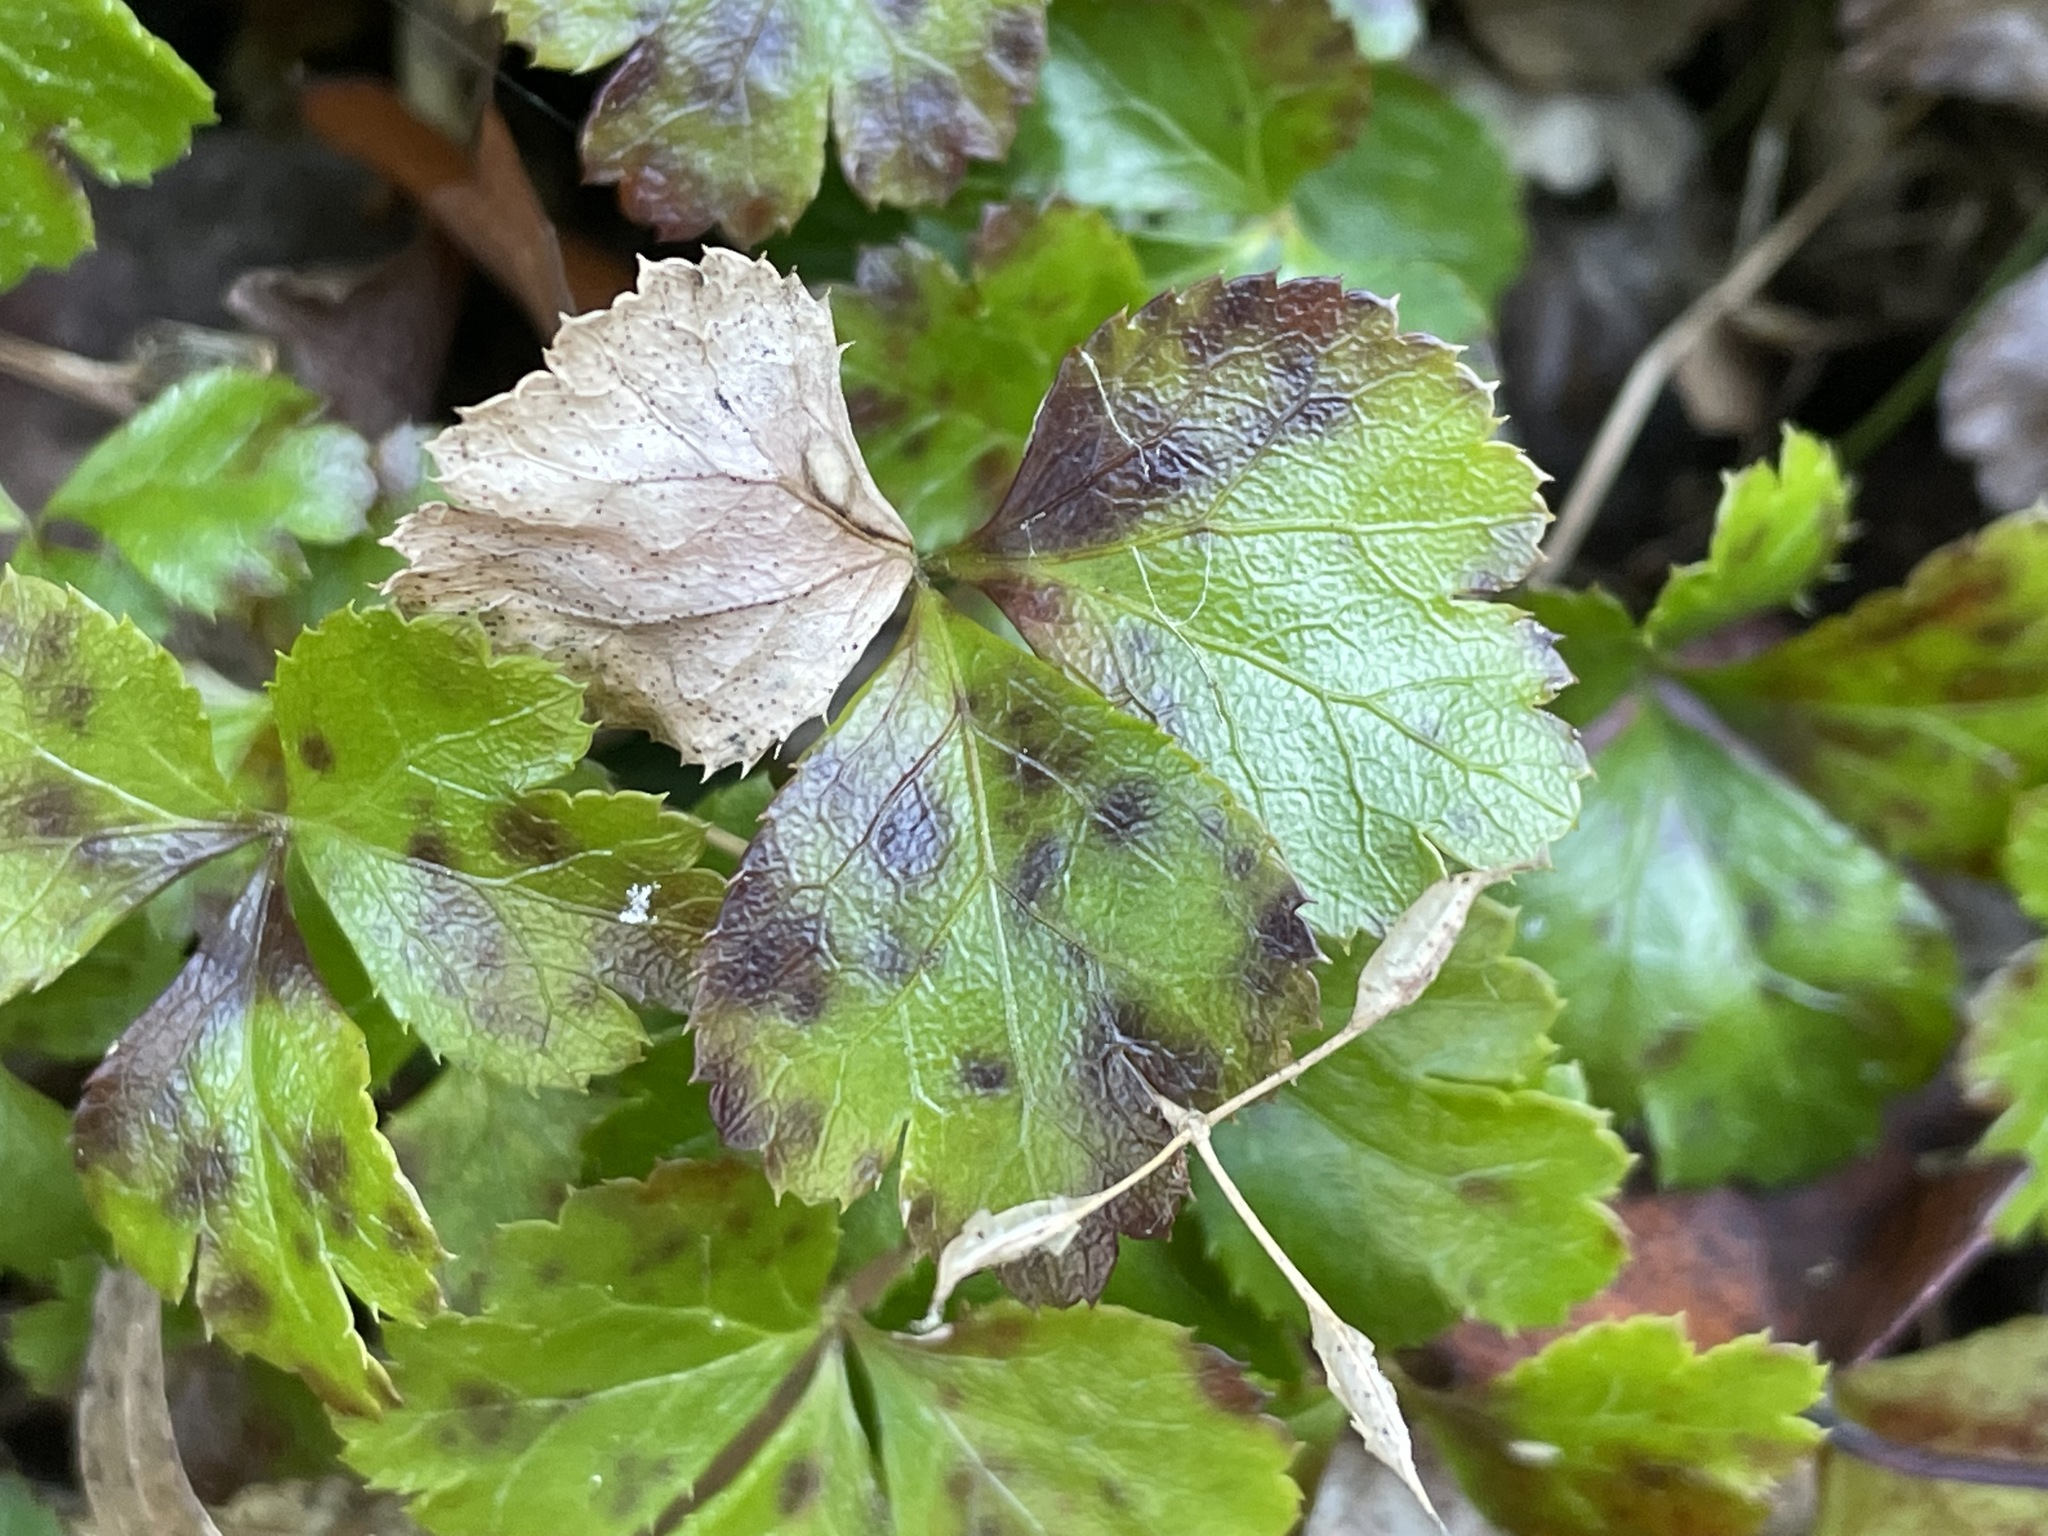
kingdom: Plantae
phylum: Tracheophyta
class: Magnoliopsida
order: Ranunculales
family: Ranunculaceae
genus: Coptis
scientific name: Coptis trifolia
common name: Canker-root
